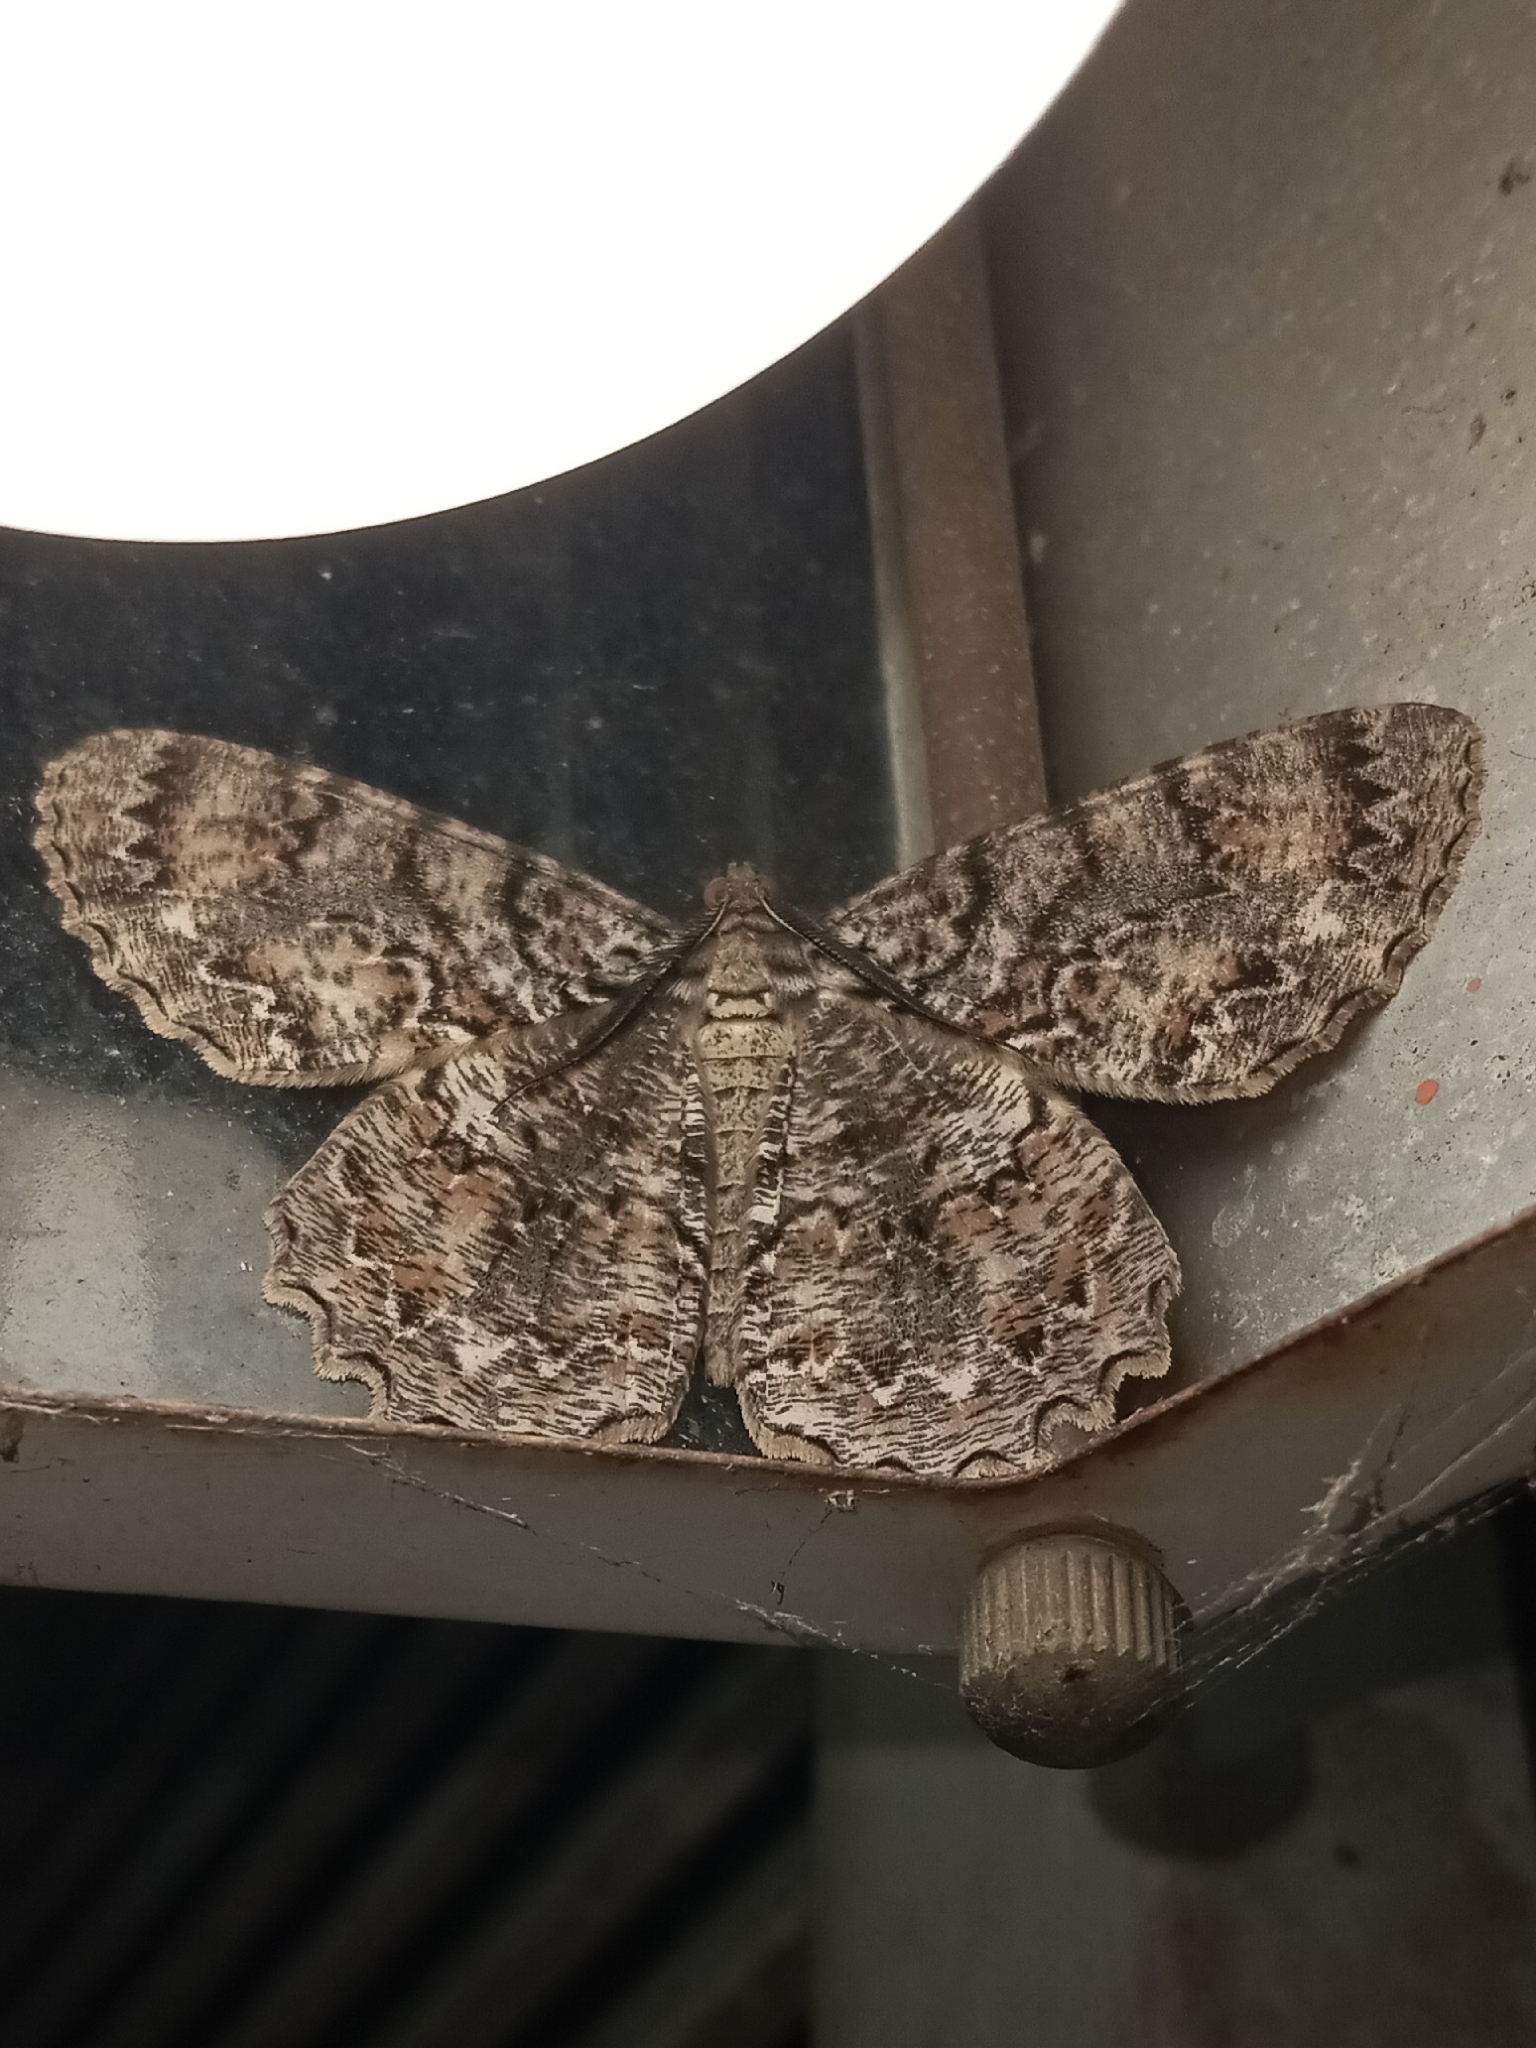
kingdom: Animalia
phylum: Arthropoda
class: Insecta
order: Lepidoptera
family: Geometridae
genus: Epimecis
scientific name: Epimecis hortaria
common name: Tulip-tree beauty
